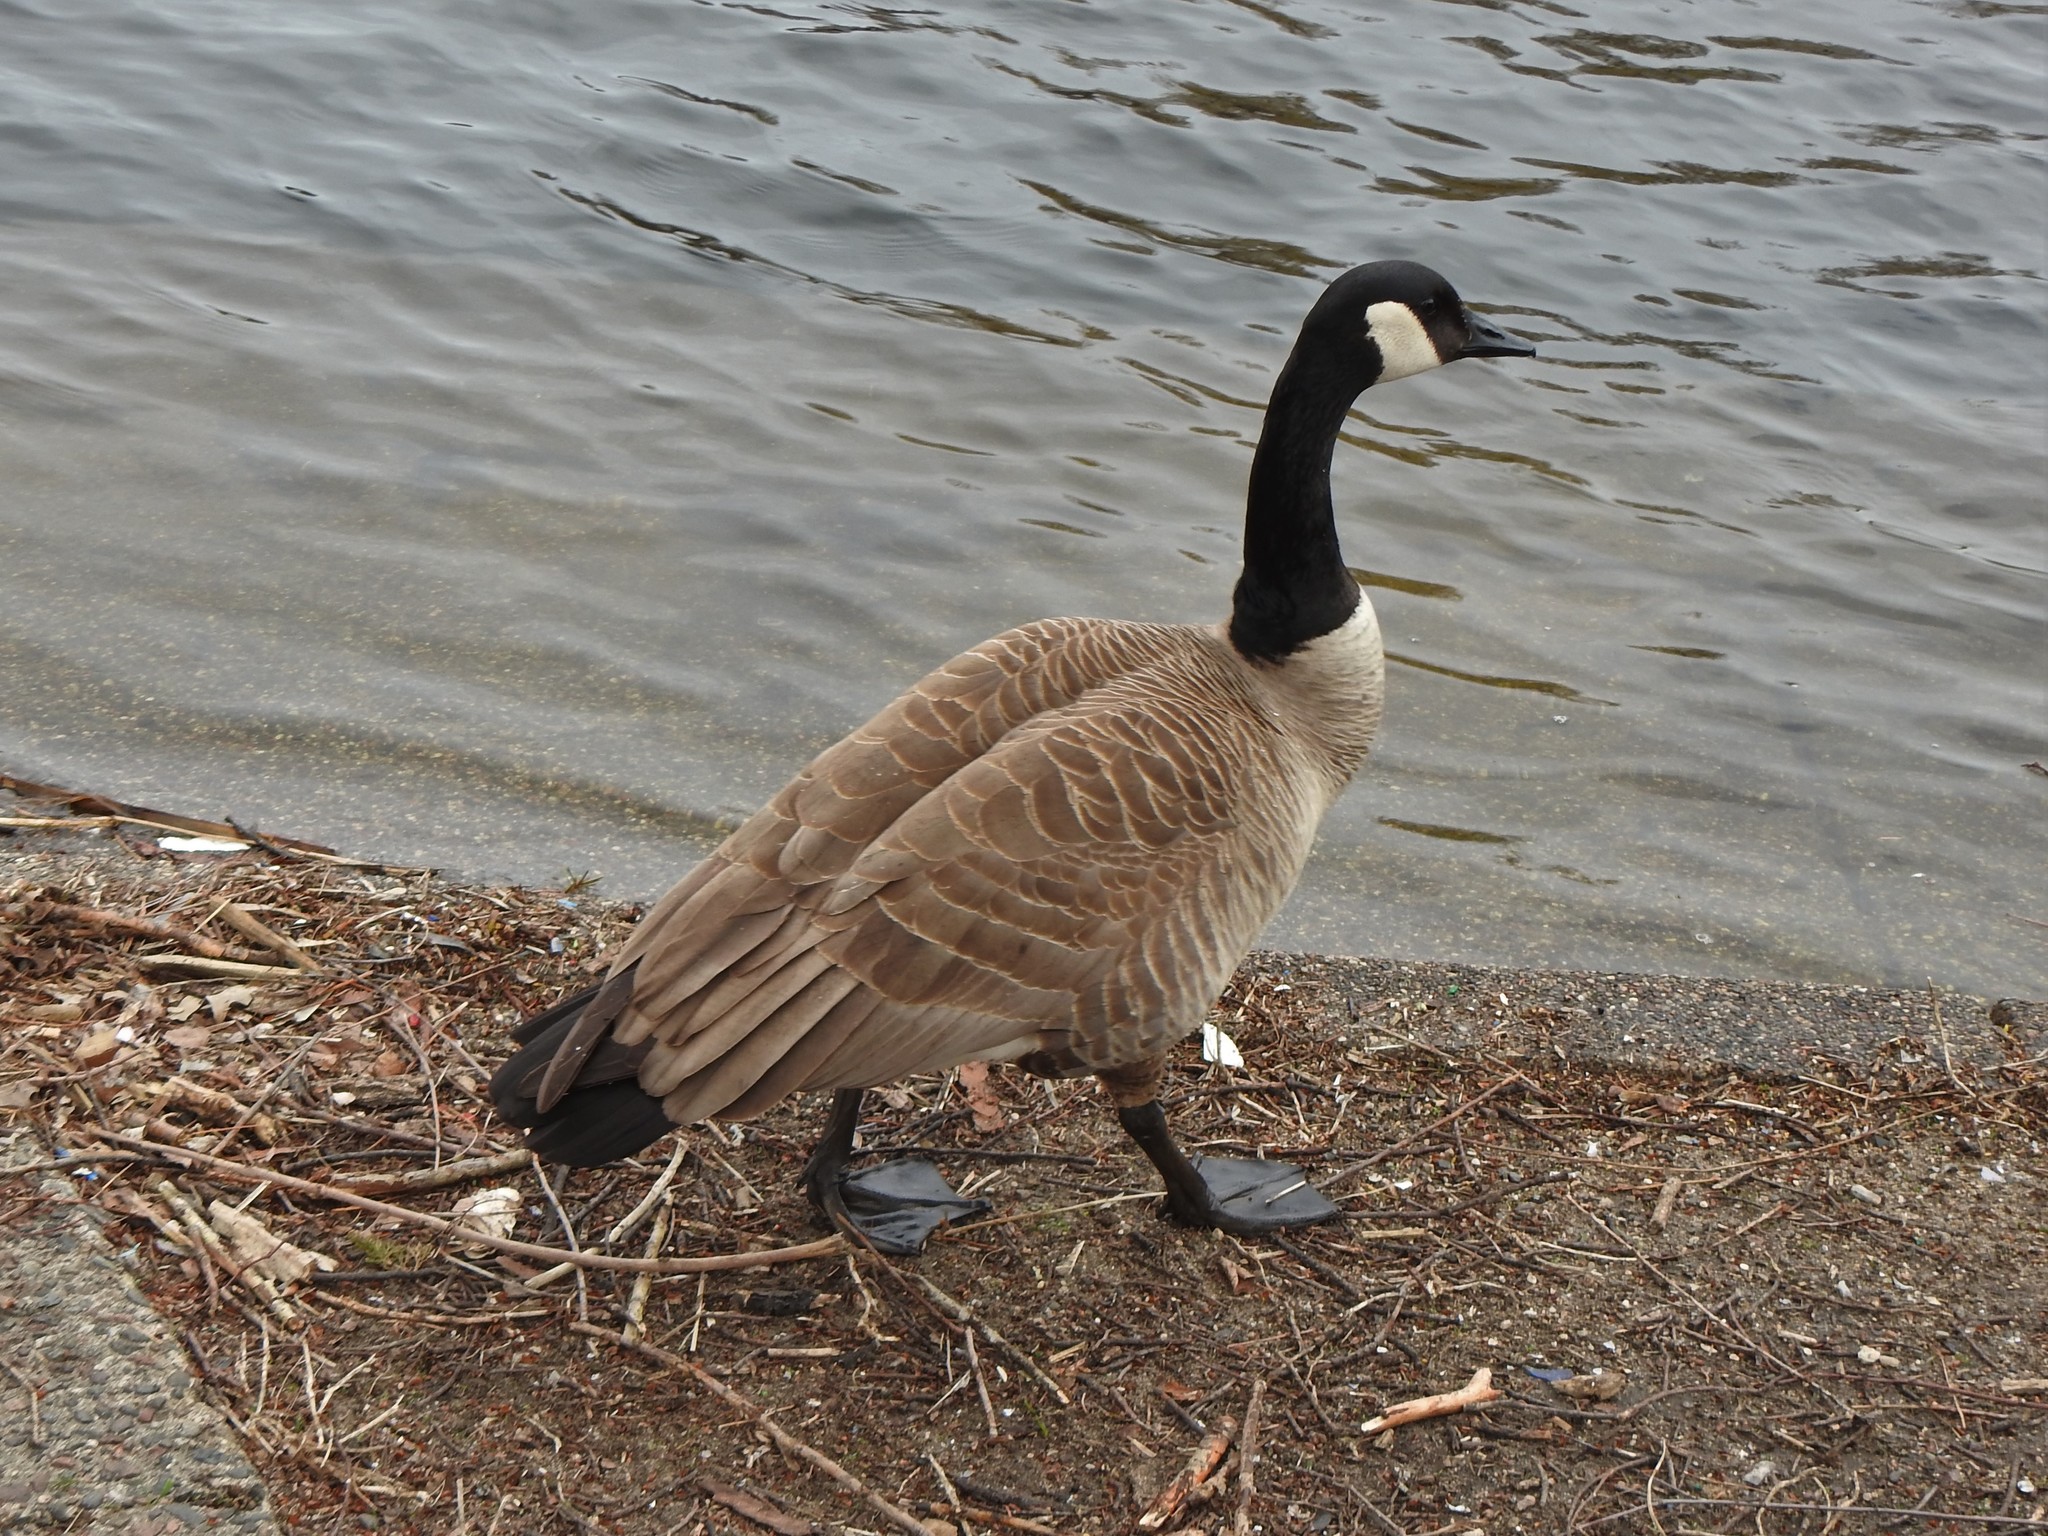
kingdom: Animalia
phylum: Chordata
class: Aves
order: Anseriformes
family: Anatidae
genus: Branta
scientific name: Branta canadensis
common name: Canada goose
